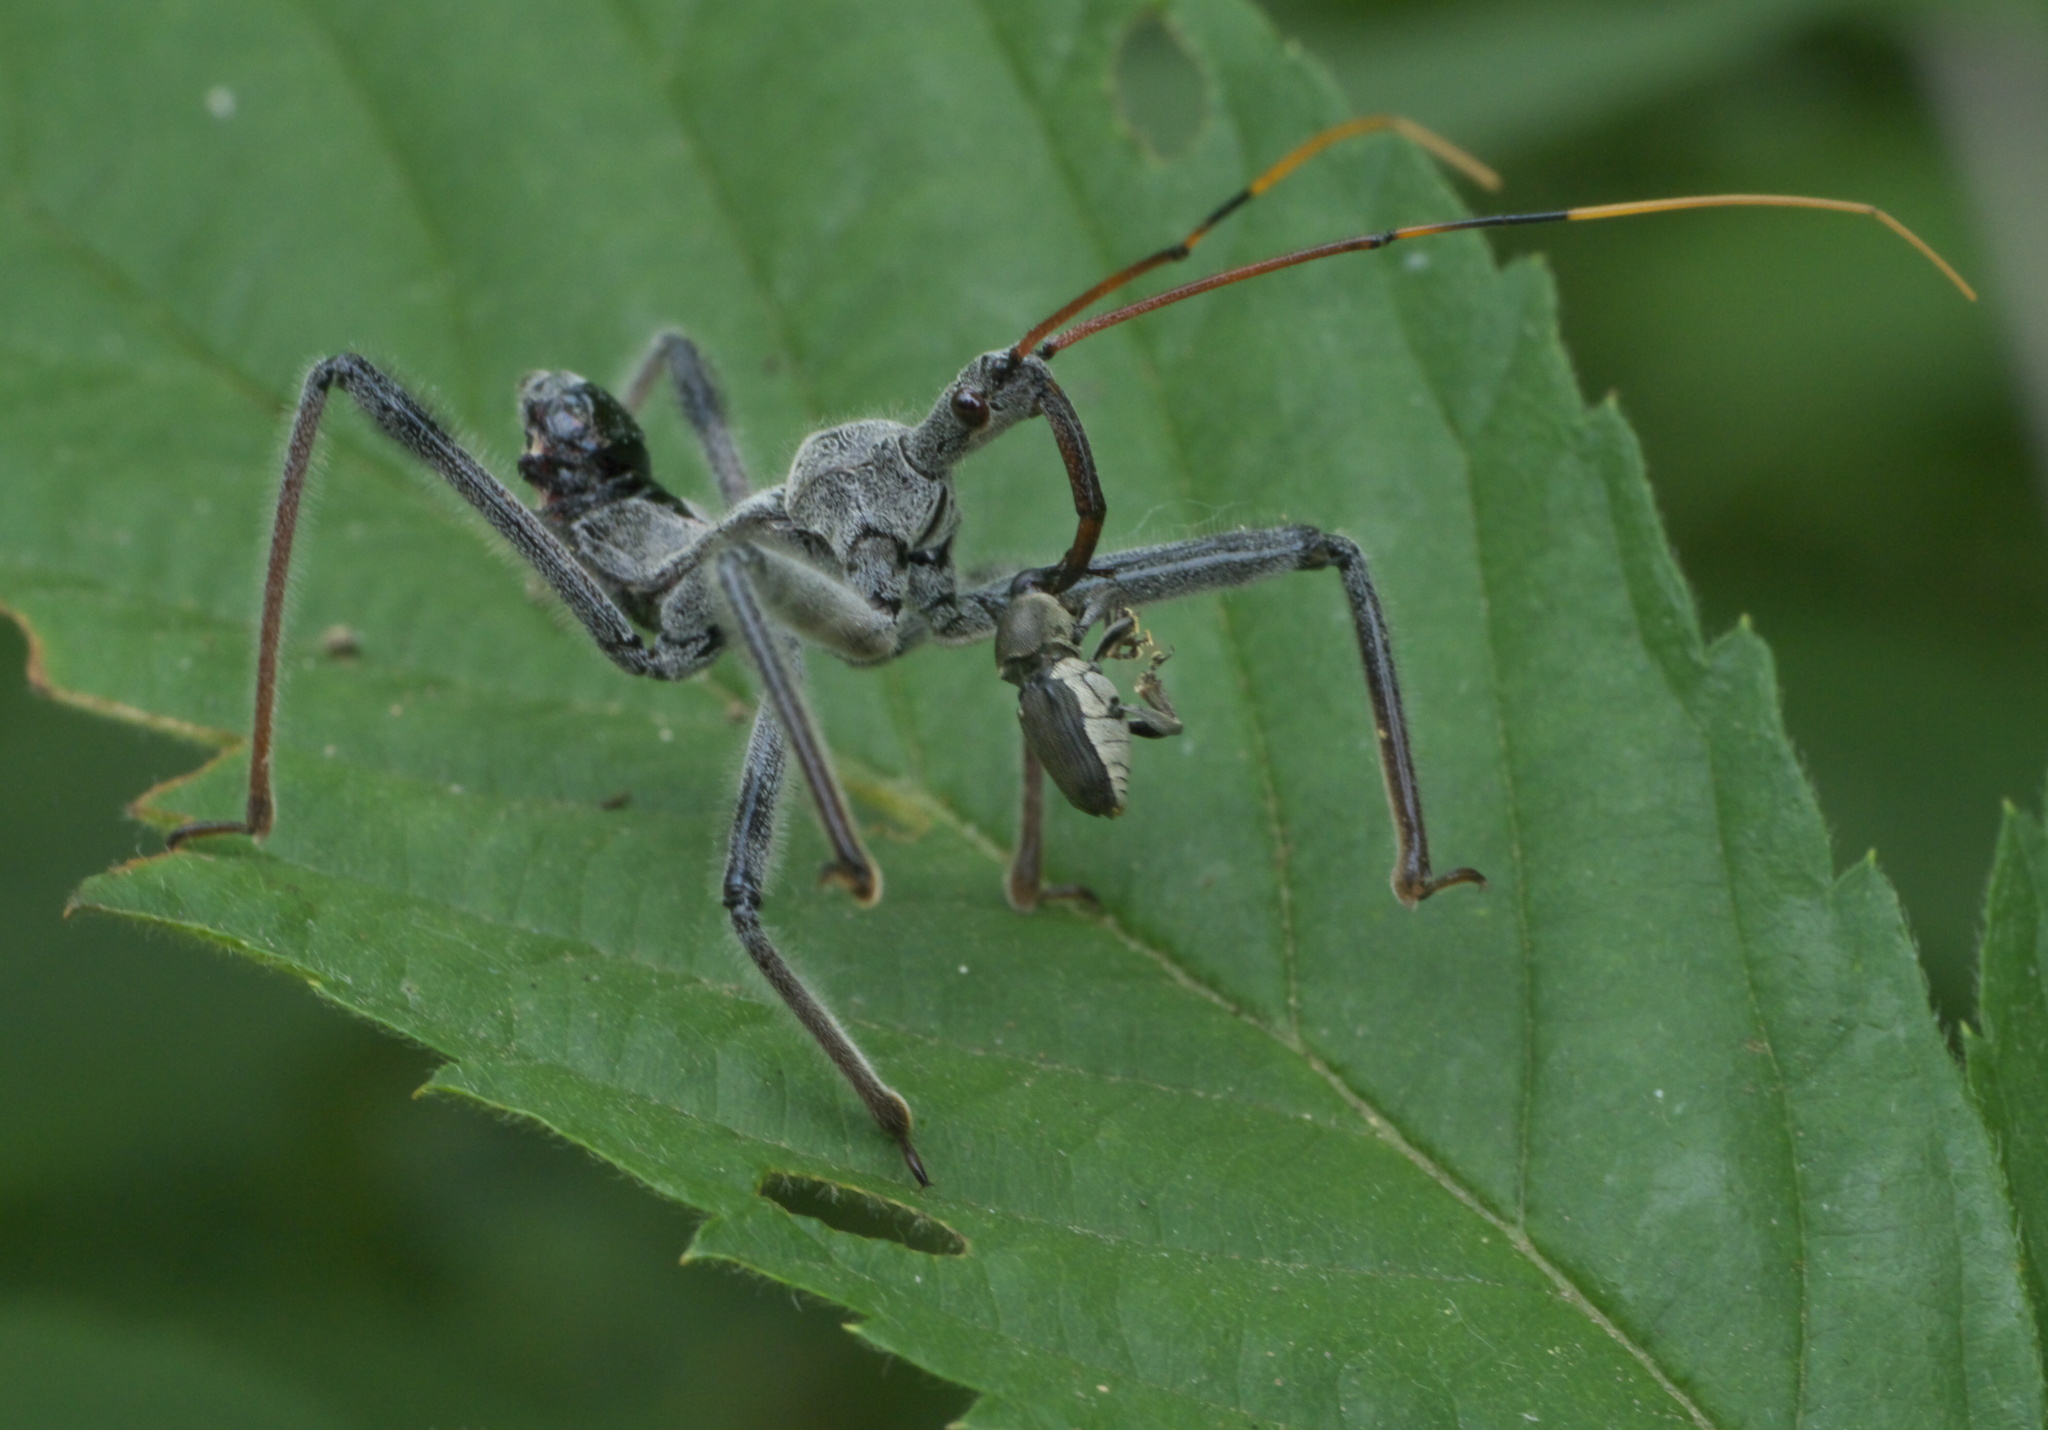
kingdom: Animalia
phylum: Arthropoda
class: Insecta
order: Hemiptera
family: Reduviidae
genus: Arilus
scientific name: Arilus cristatus
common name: North american wheel bug
